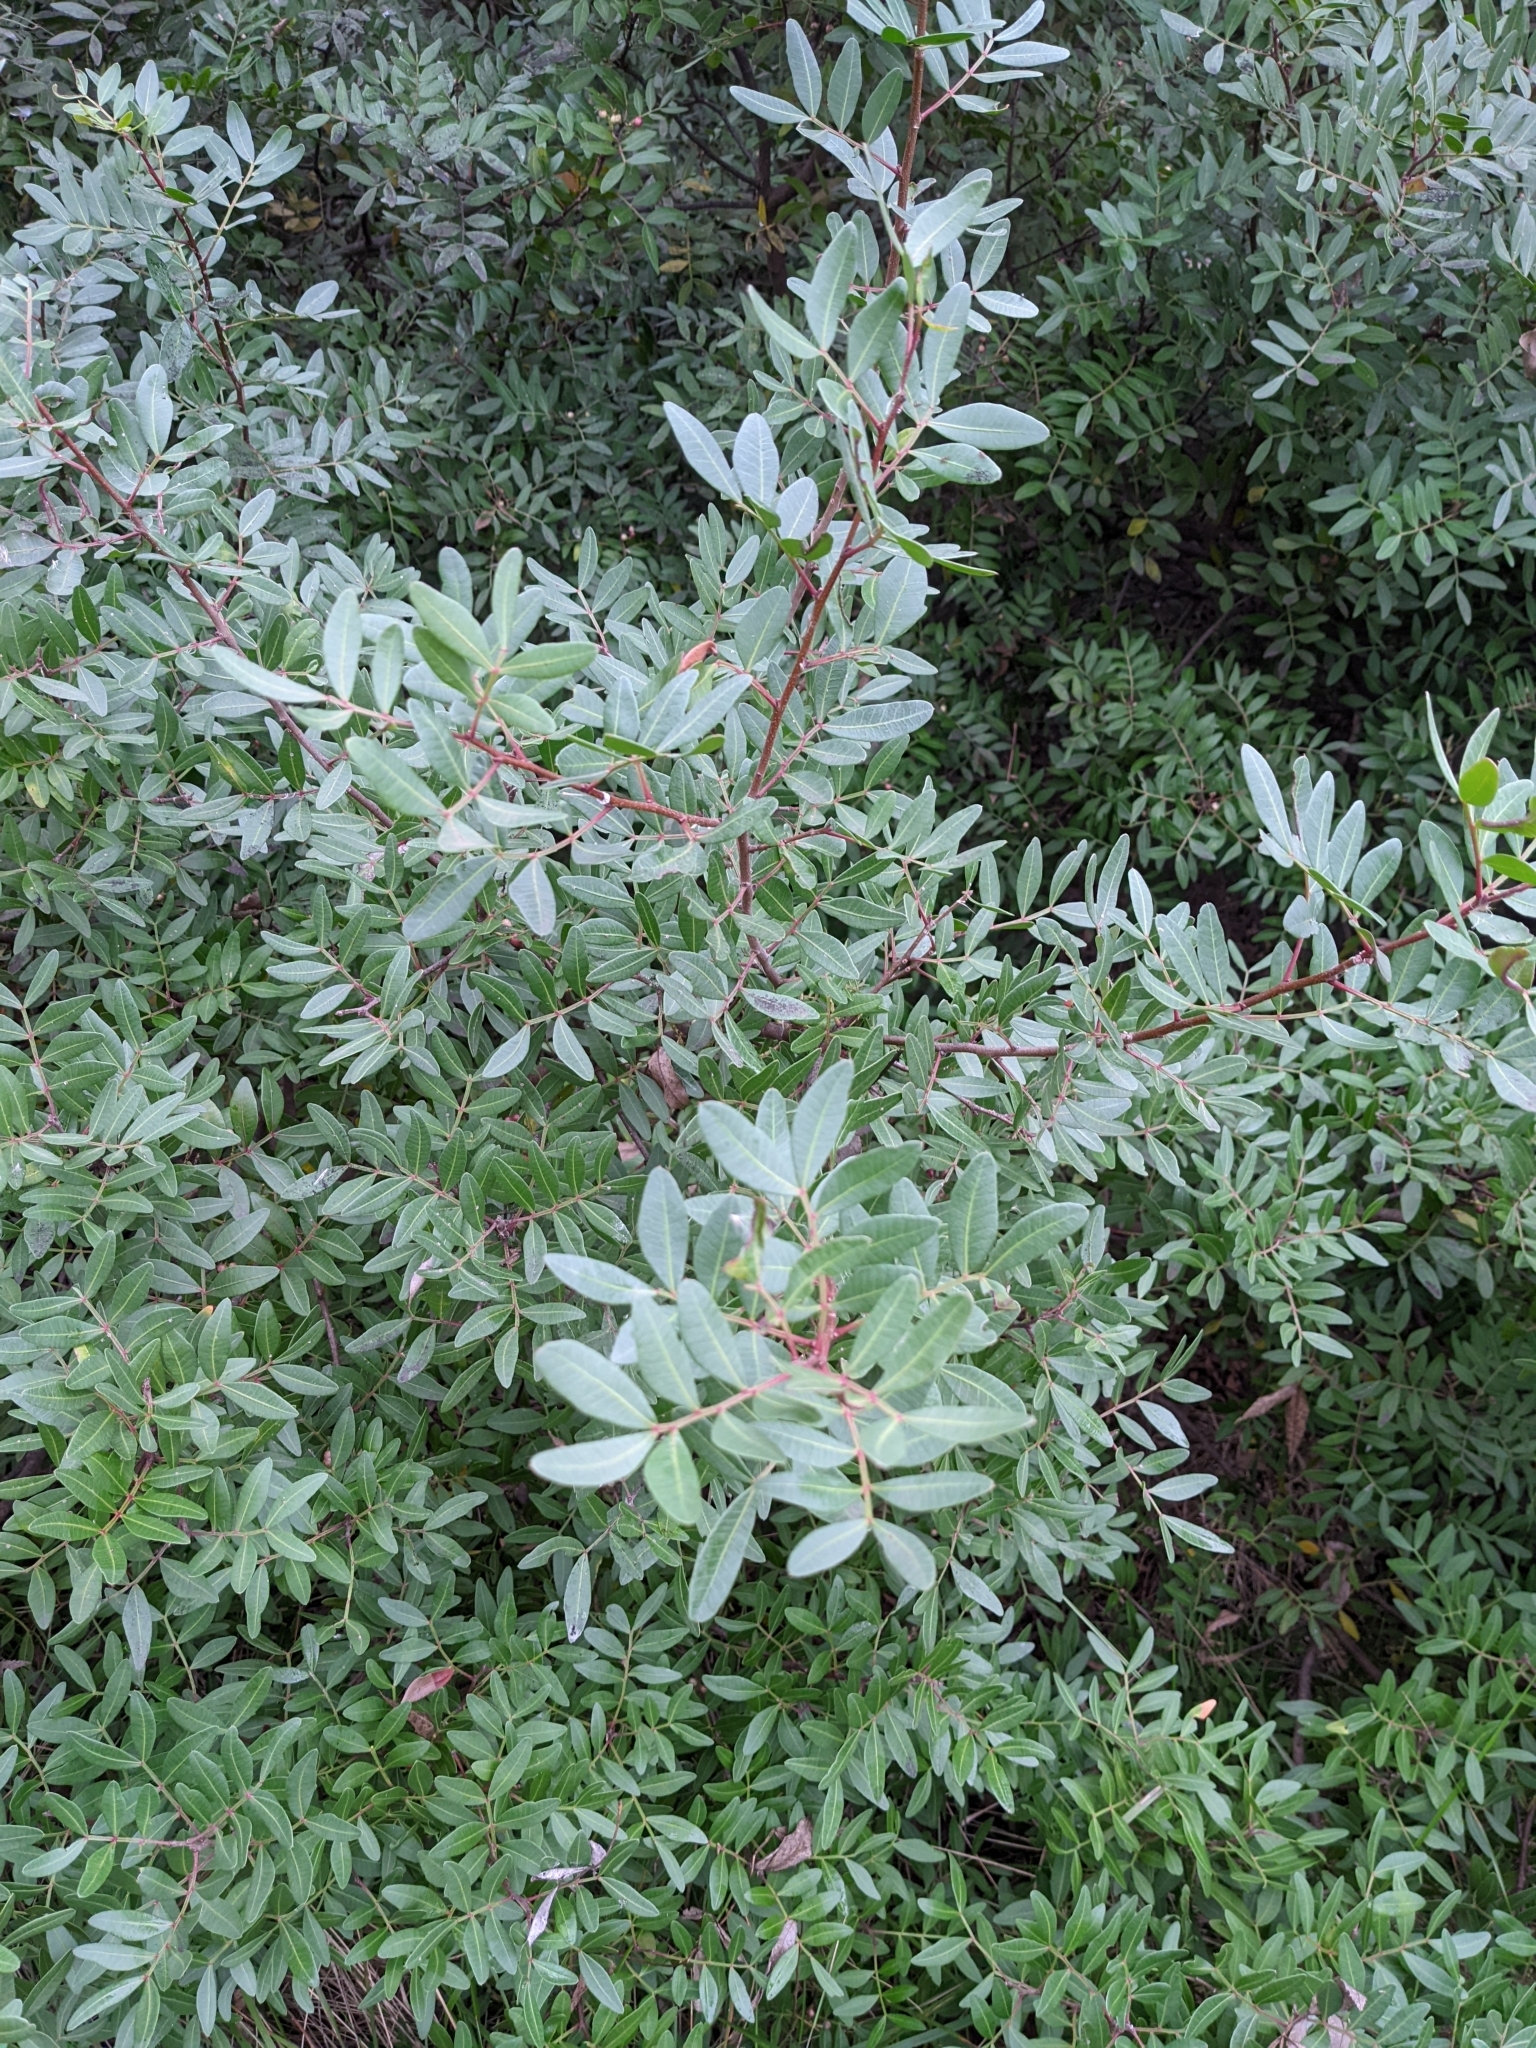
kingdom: Plantae
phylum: Tracheophyta
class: Magnoliopsida
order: Sapindales
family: Anacardiaceae
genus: Pistacia
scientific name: Pistacia lentiscus
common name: Lentisk
